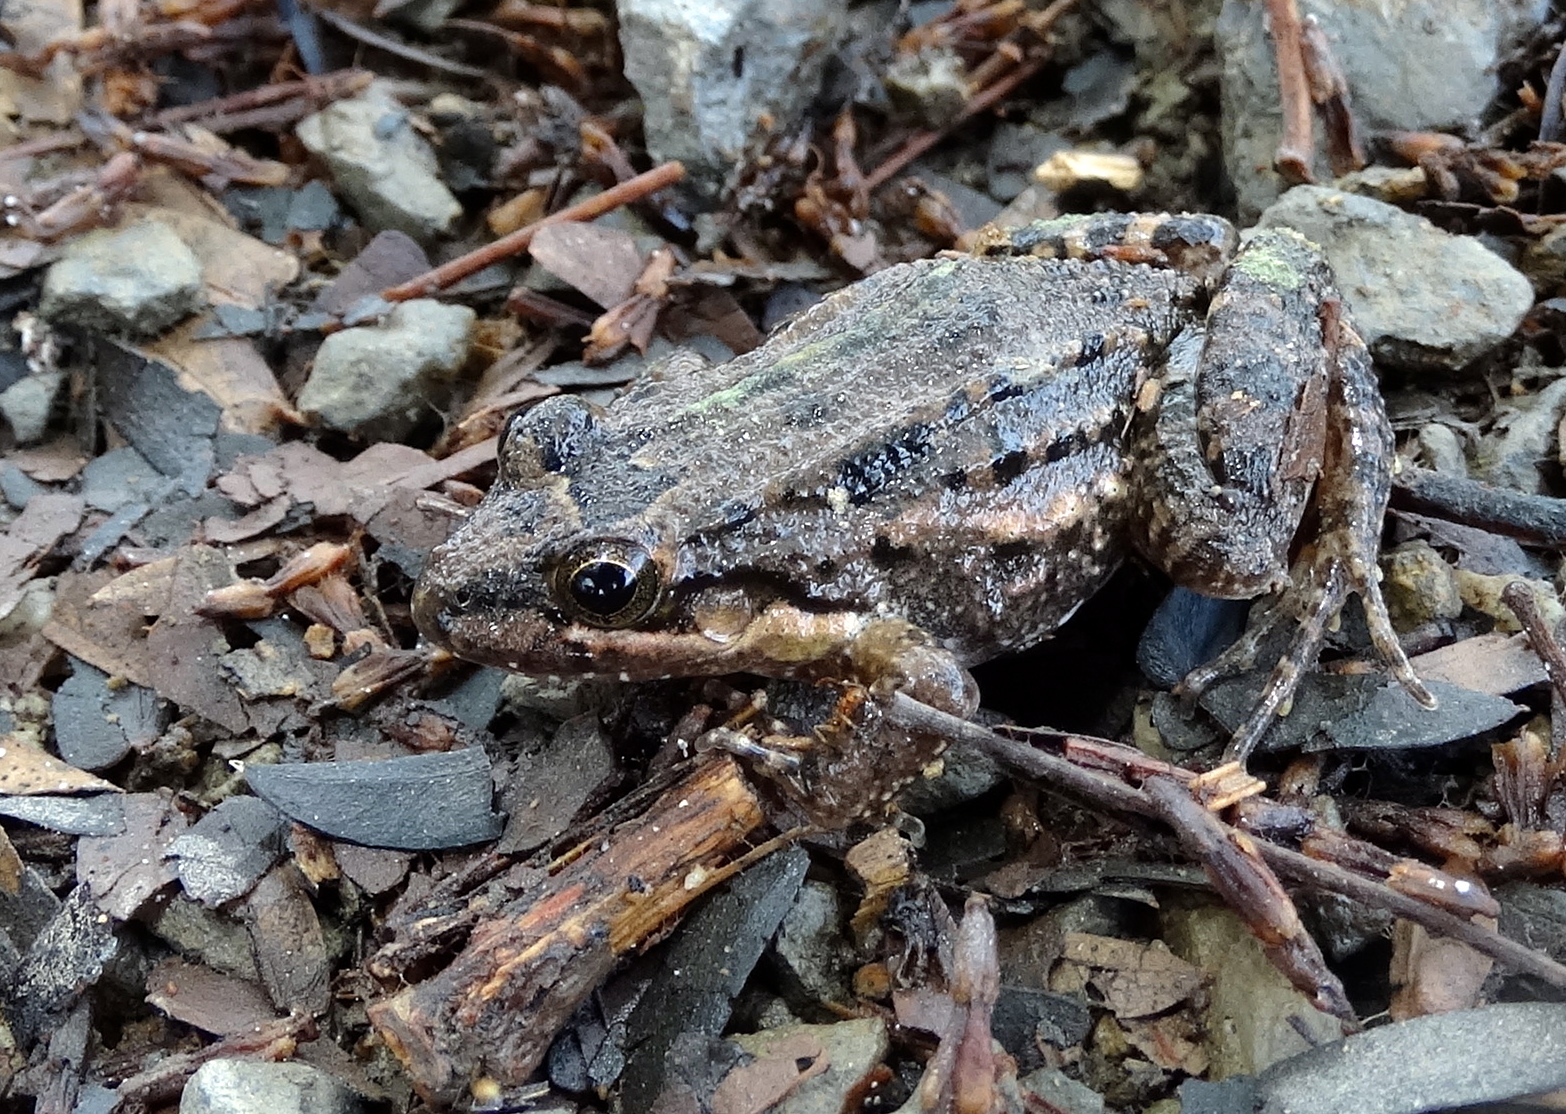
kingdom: Animalia
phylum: Chordata
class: Amphibia
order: Anura
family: Leptodactylidae
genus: Leptodactylus
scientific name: Leptodactylus melanonotus
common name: Fringe-toed foamfrog
